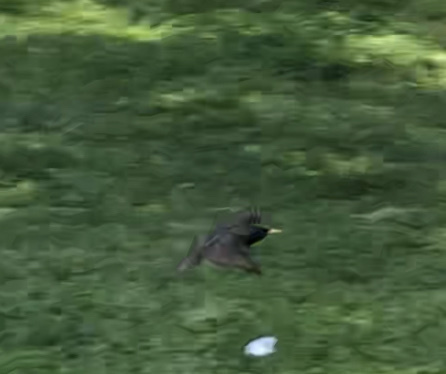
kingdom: Animalia
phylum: Chordata
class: Aves
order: Passeriformes
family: Sturnidae
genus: Sturnus
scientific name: Sturnus vulgaris
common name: Common starling
